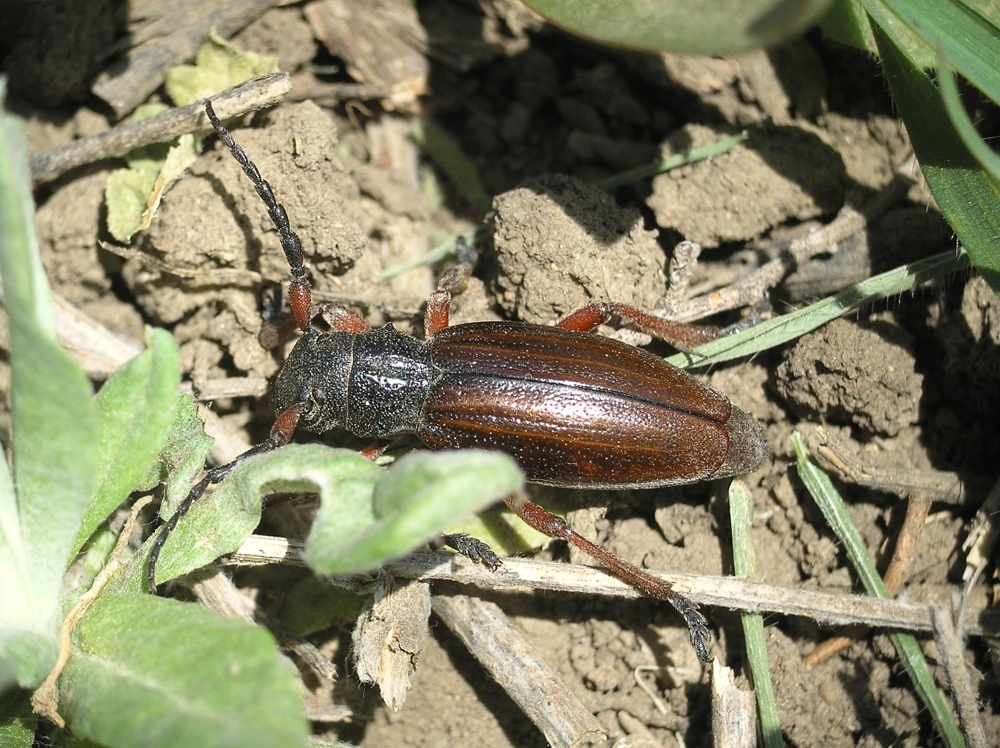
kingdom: Animalia
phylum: Arthropoda
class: Insecta
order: Coleoptera
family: Cerambycidae
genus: Dorcadion
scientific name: Dorcadion fulvum
